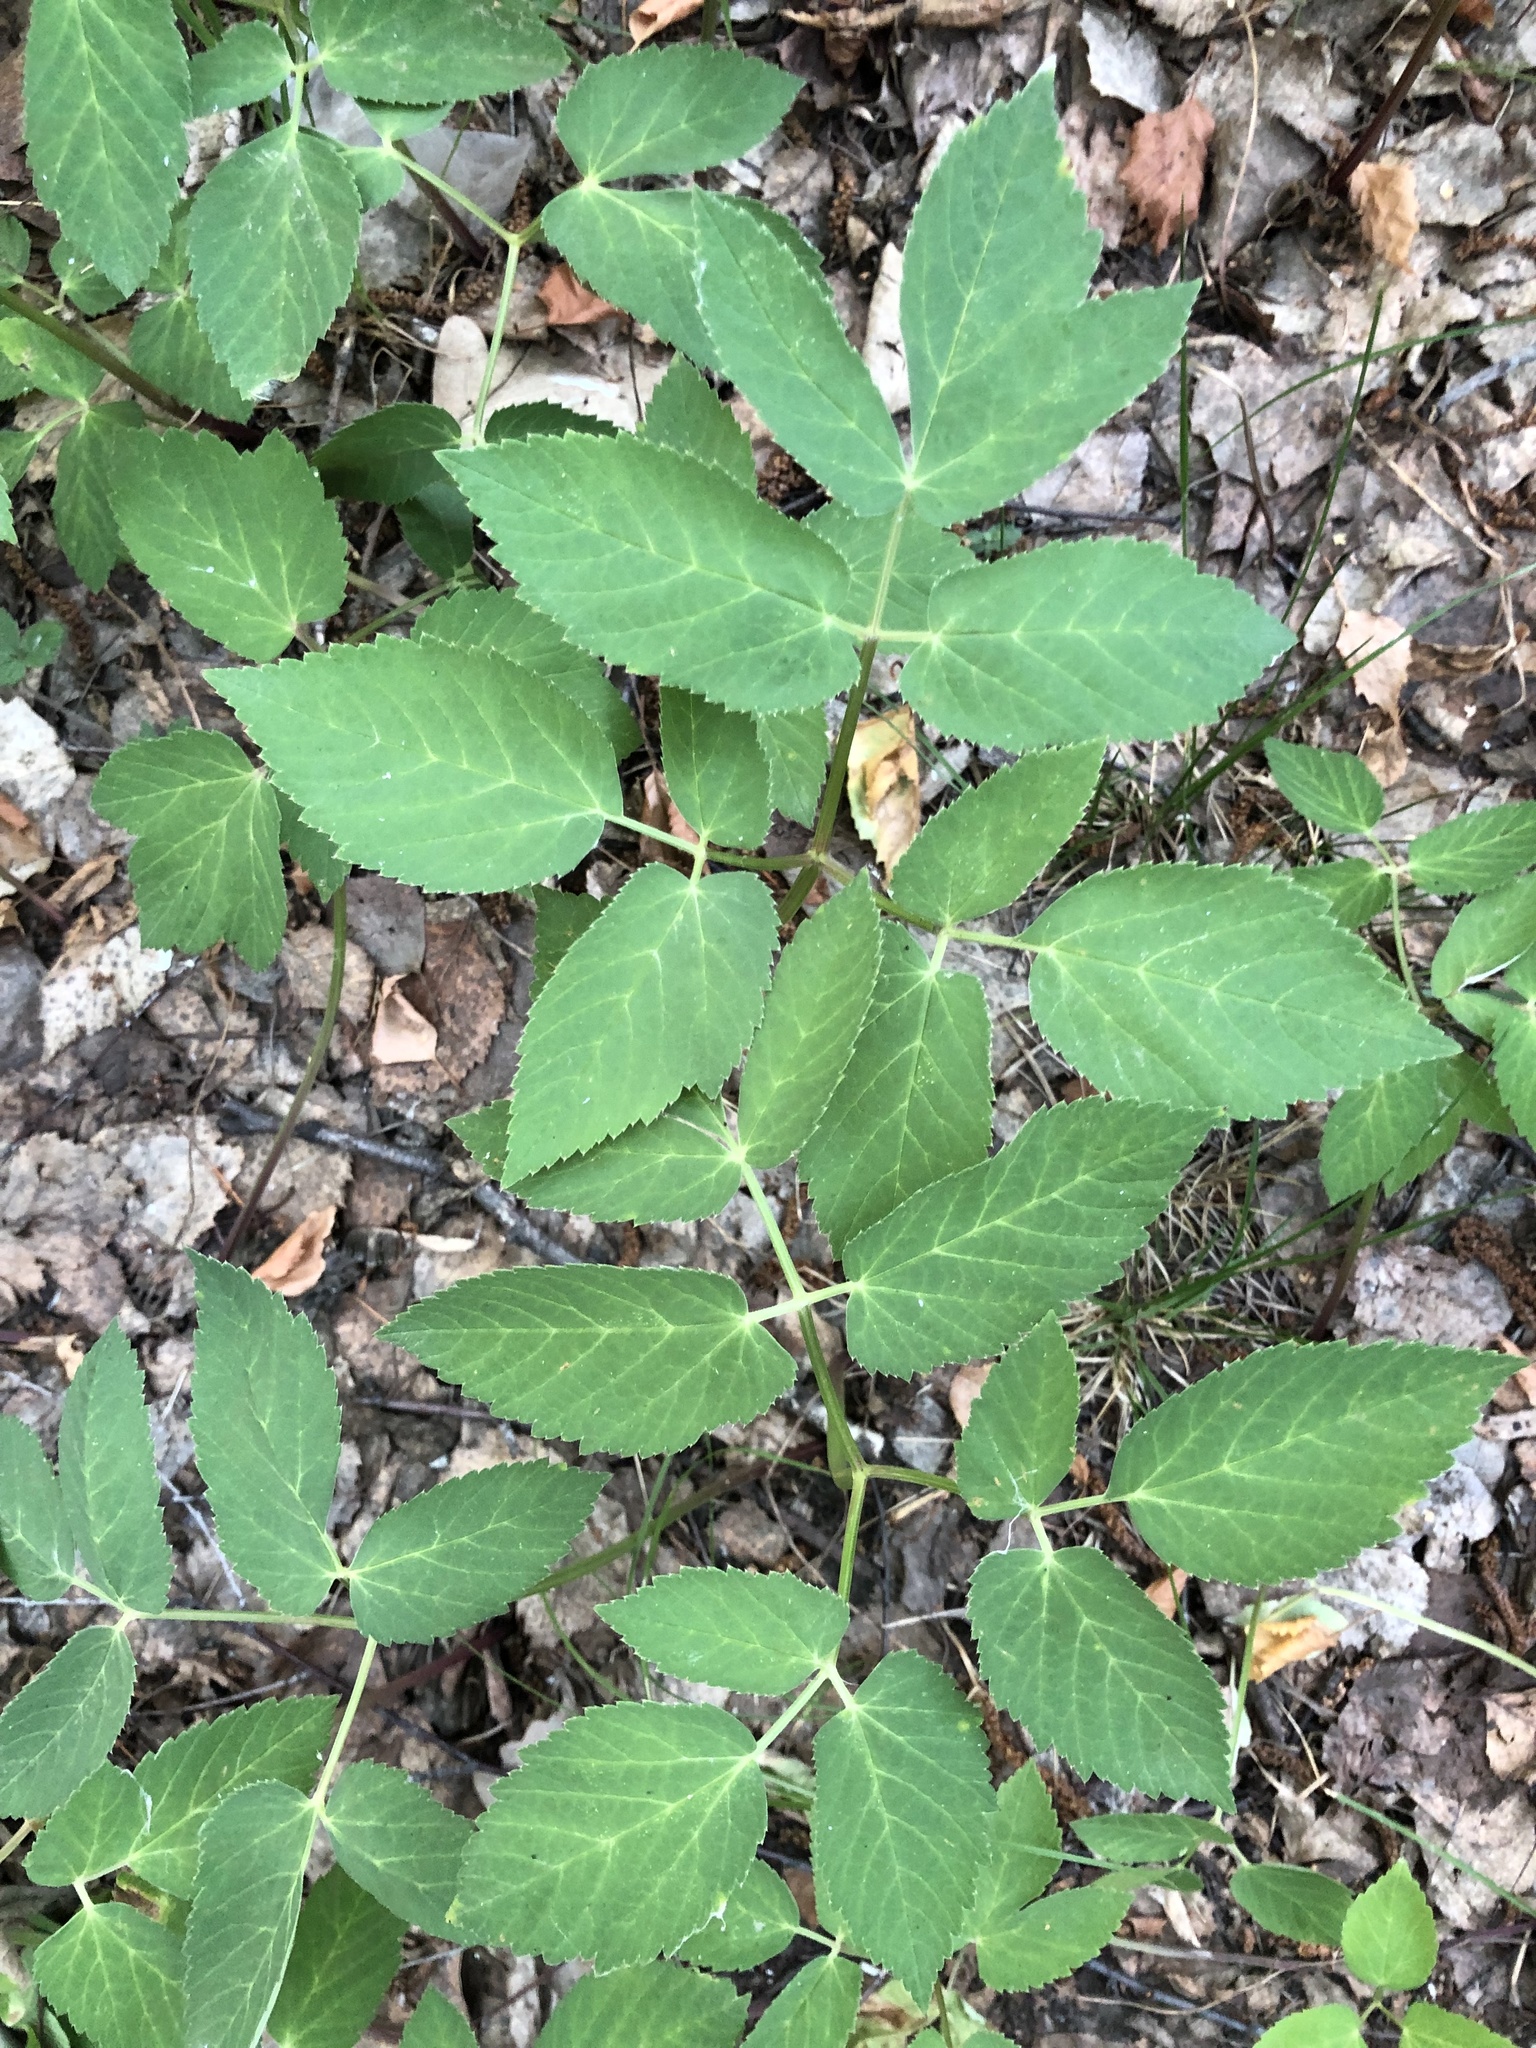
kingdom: Plantae
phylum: Tracheophyta
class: Magnoliopsida
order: Apiales
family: Apiaceae
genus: Aegopodium
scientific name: Aegopodium podagraria
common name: Ground-elder
